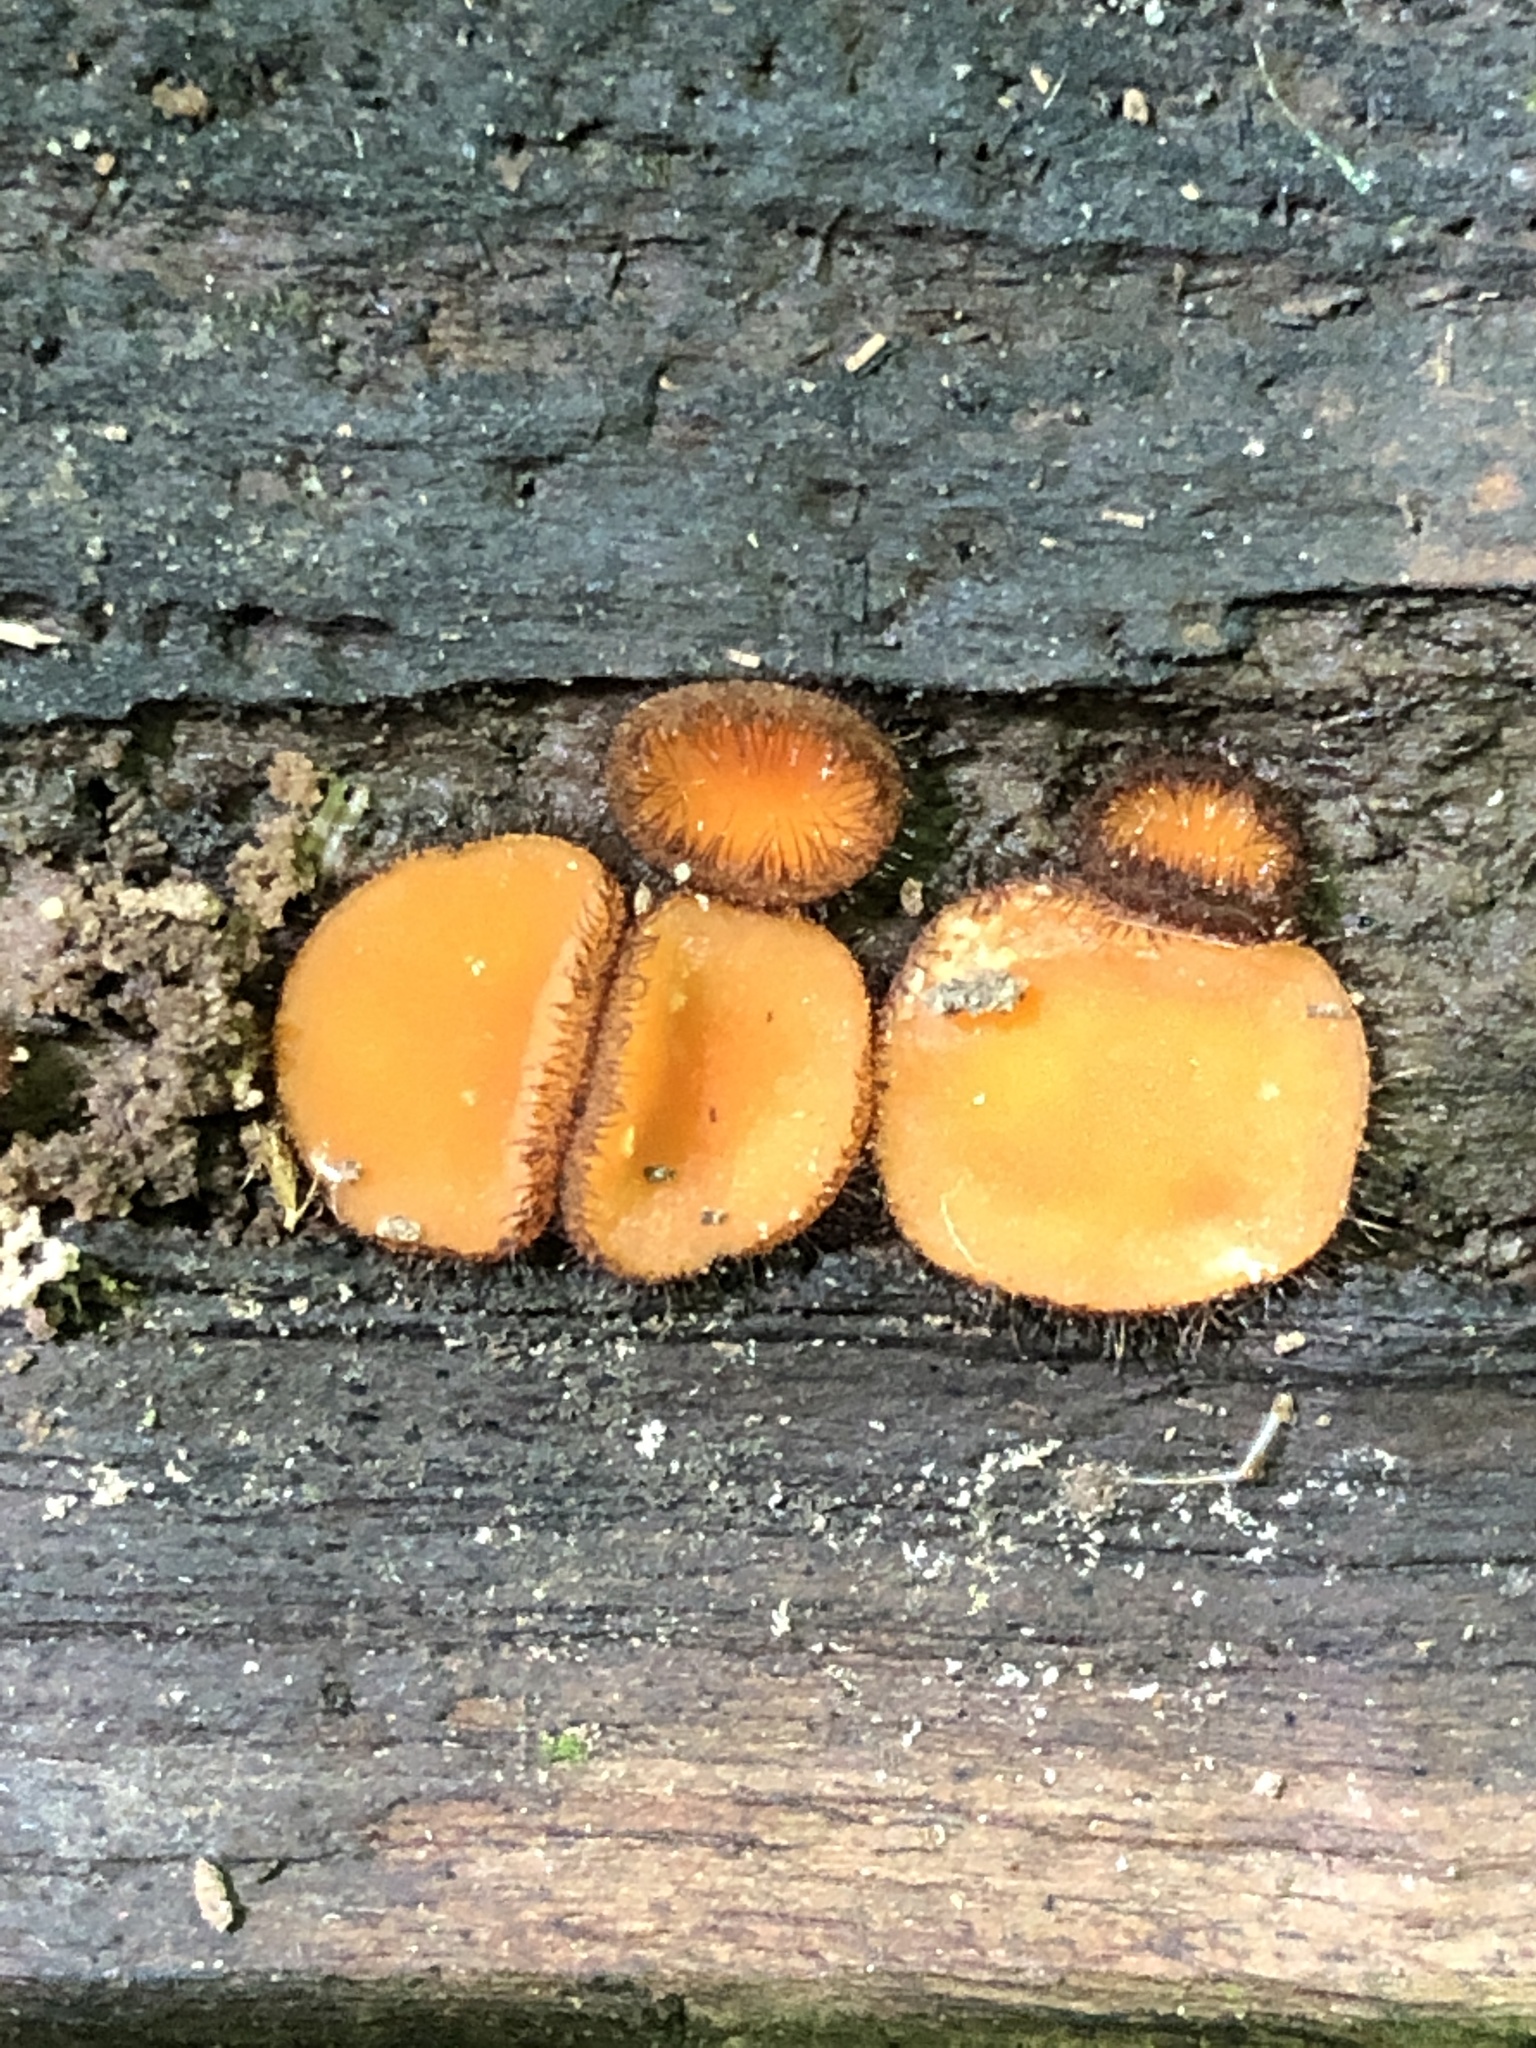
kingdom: Fungi
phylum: Ascomycota
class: Pezizomycetes
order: Pezizales
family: Pyronemataceae
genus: Scutellinia
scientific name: Scutellinia
